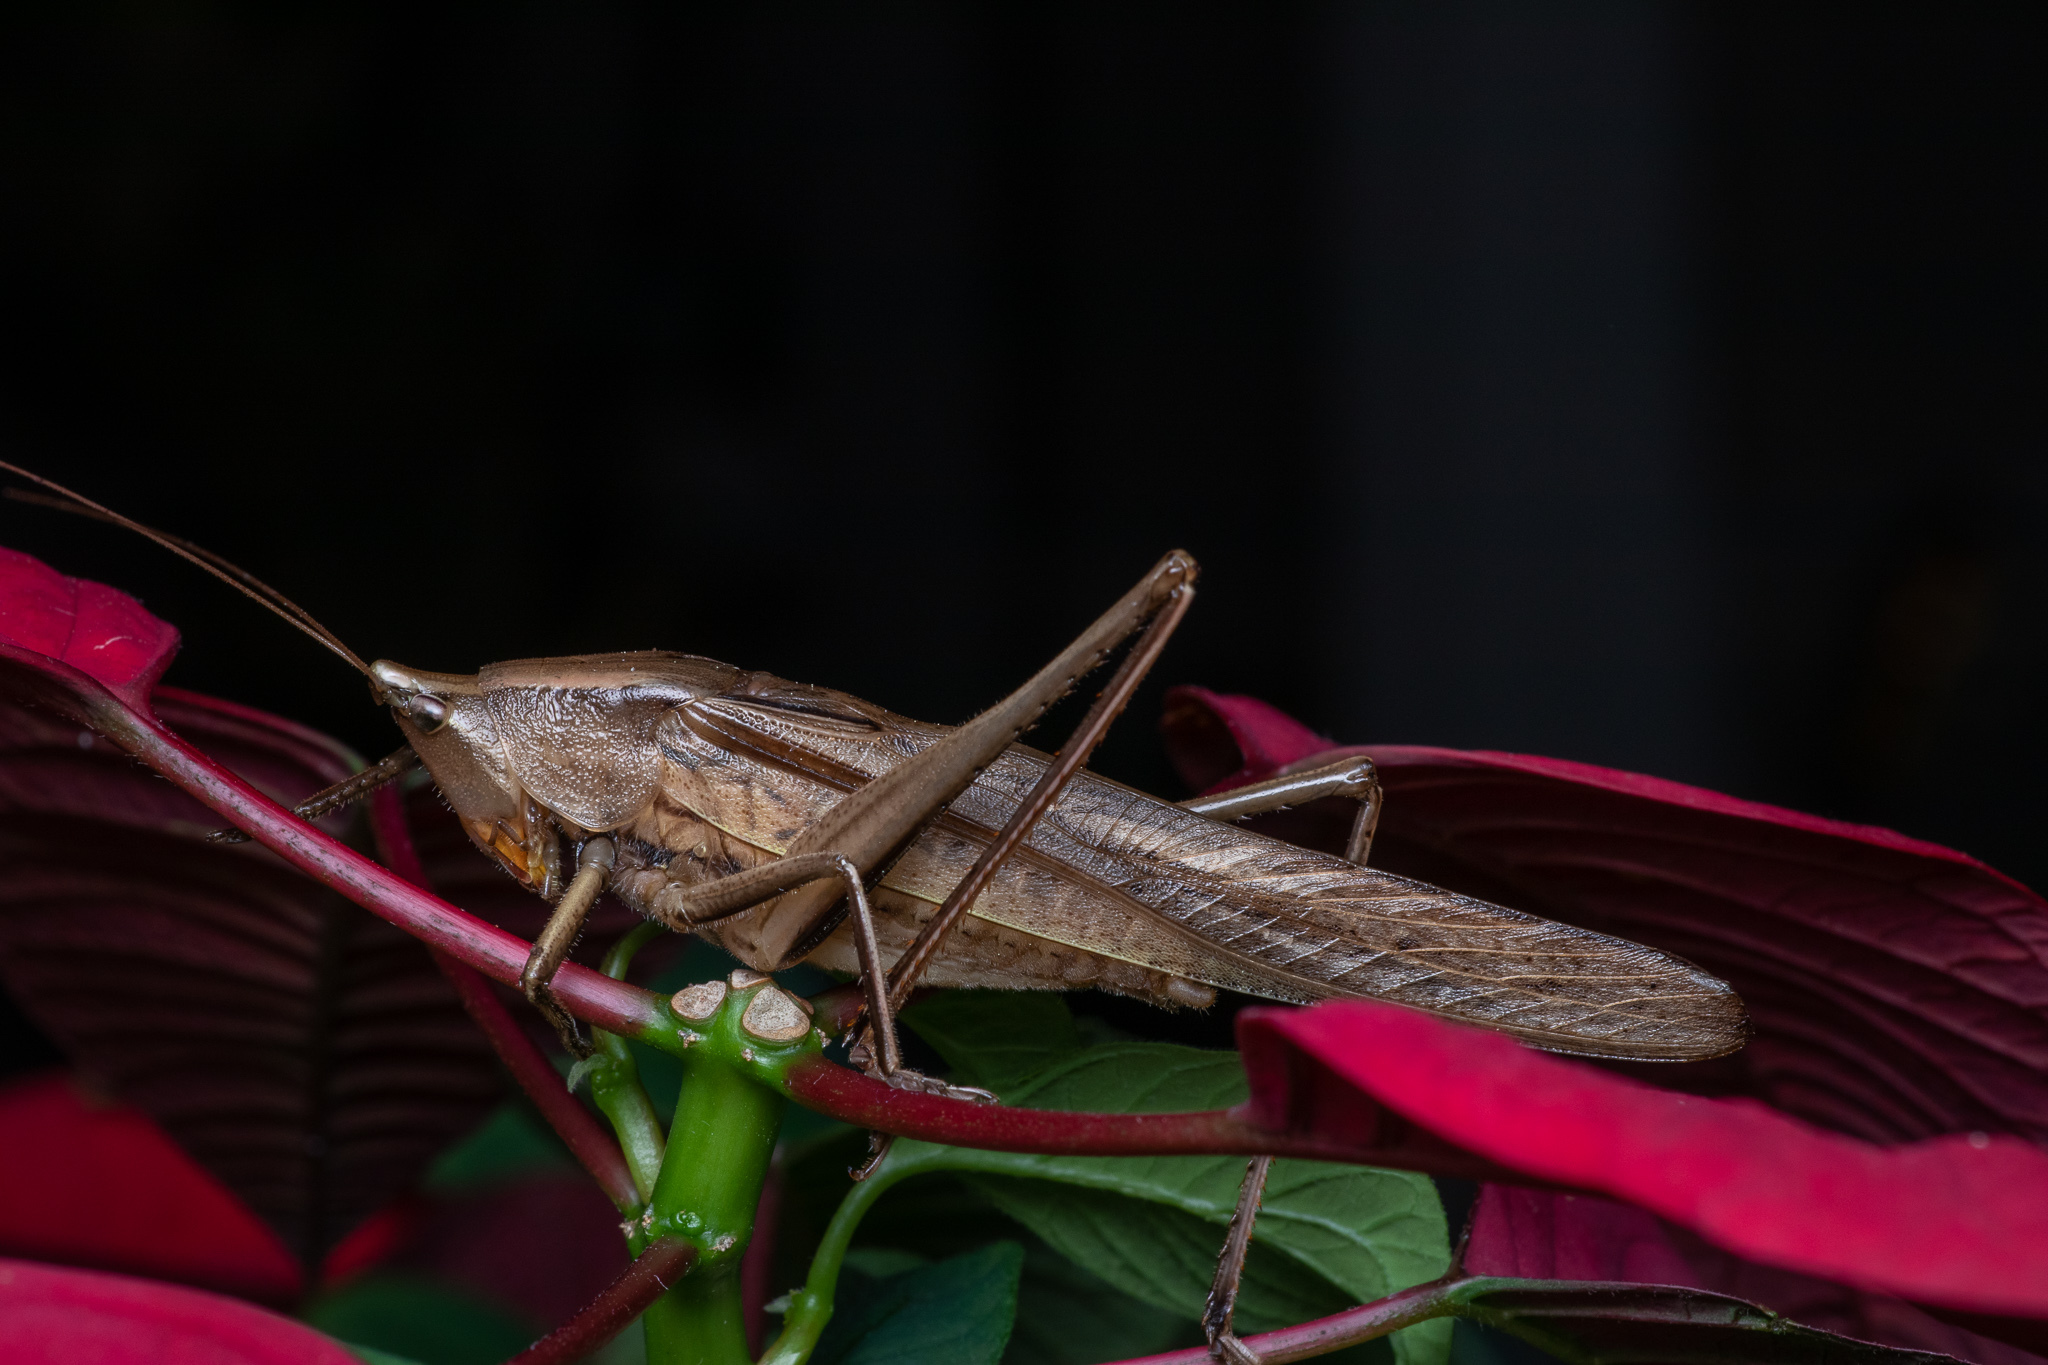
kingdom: Animalia
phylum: Arthropoda
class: Insecta
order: Orthoptera
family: Tettigoniidae
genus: Neoconocephalus
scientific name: Neoconocephalus triops
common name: Broad-tipped conehead
